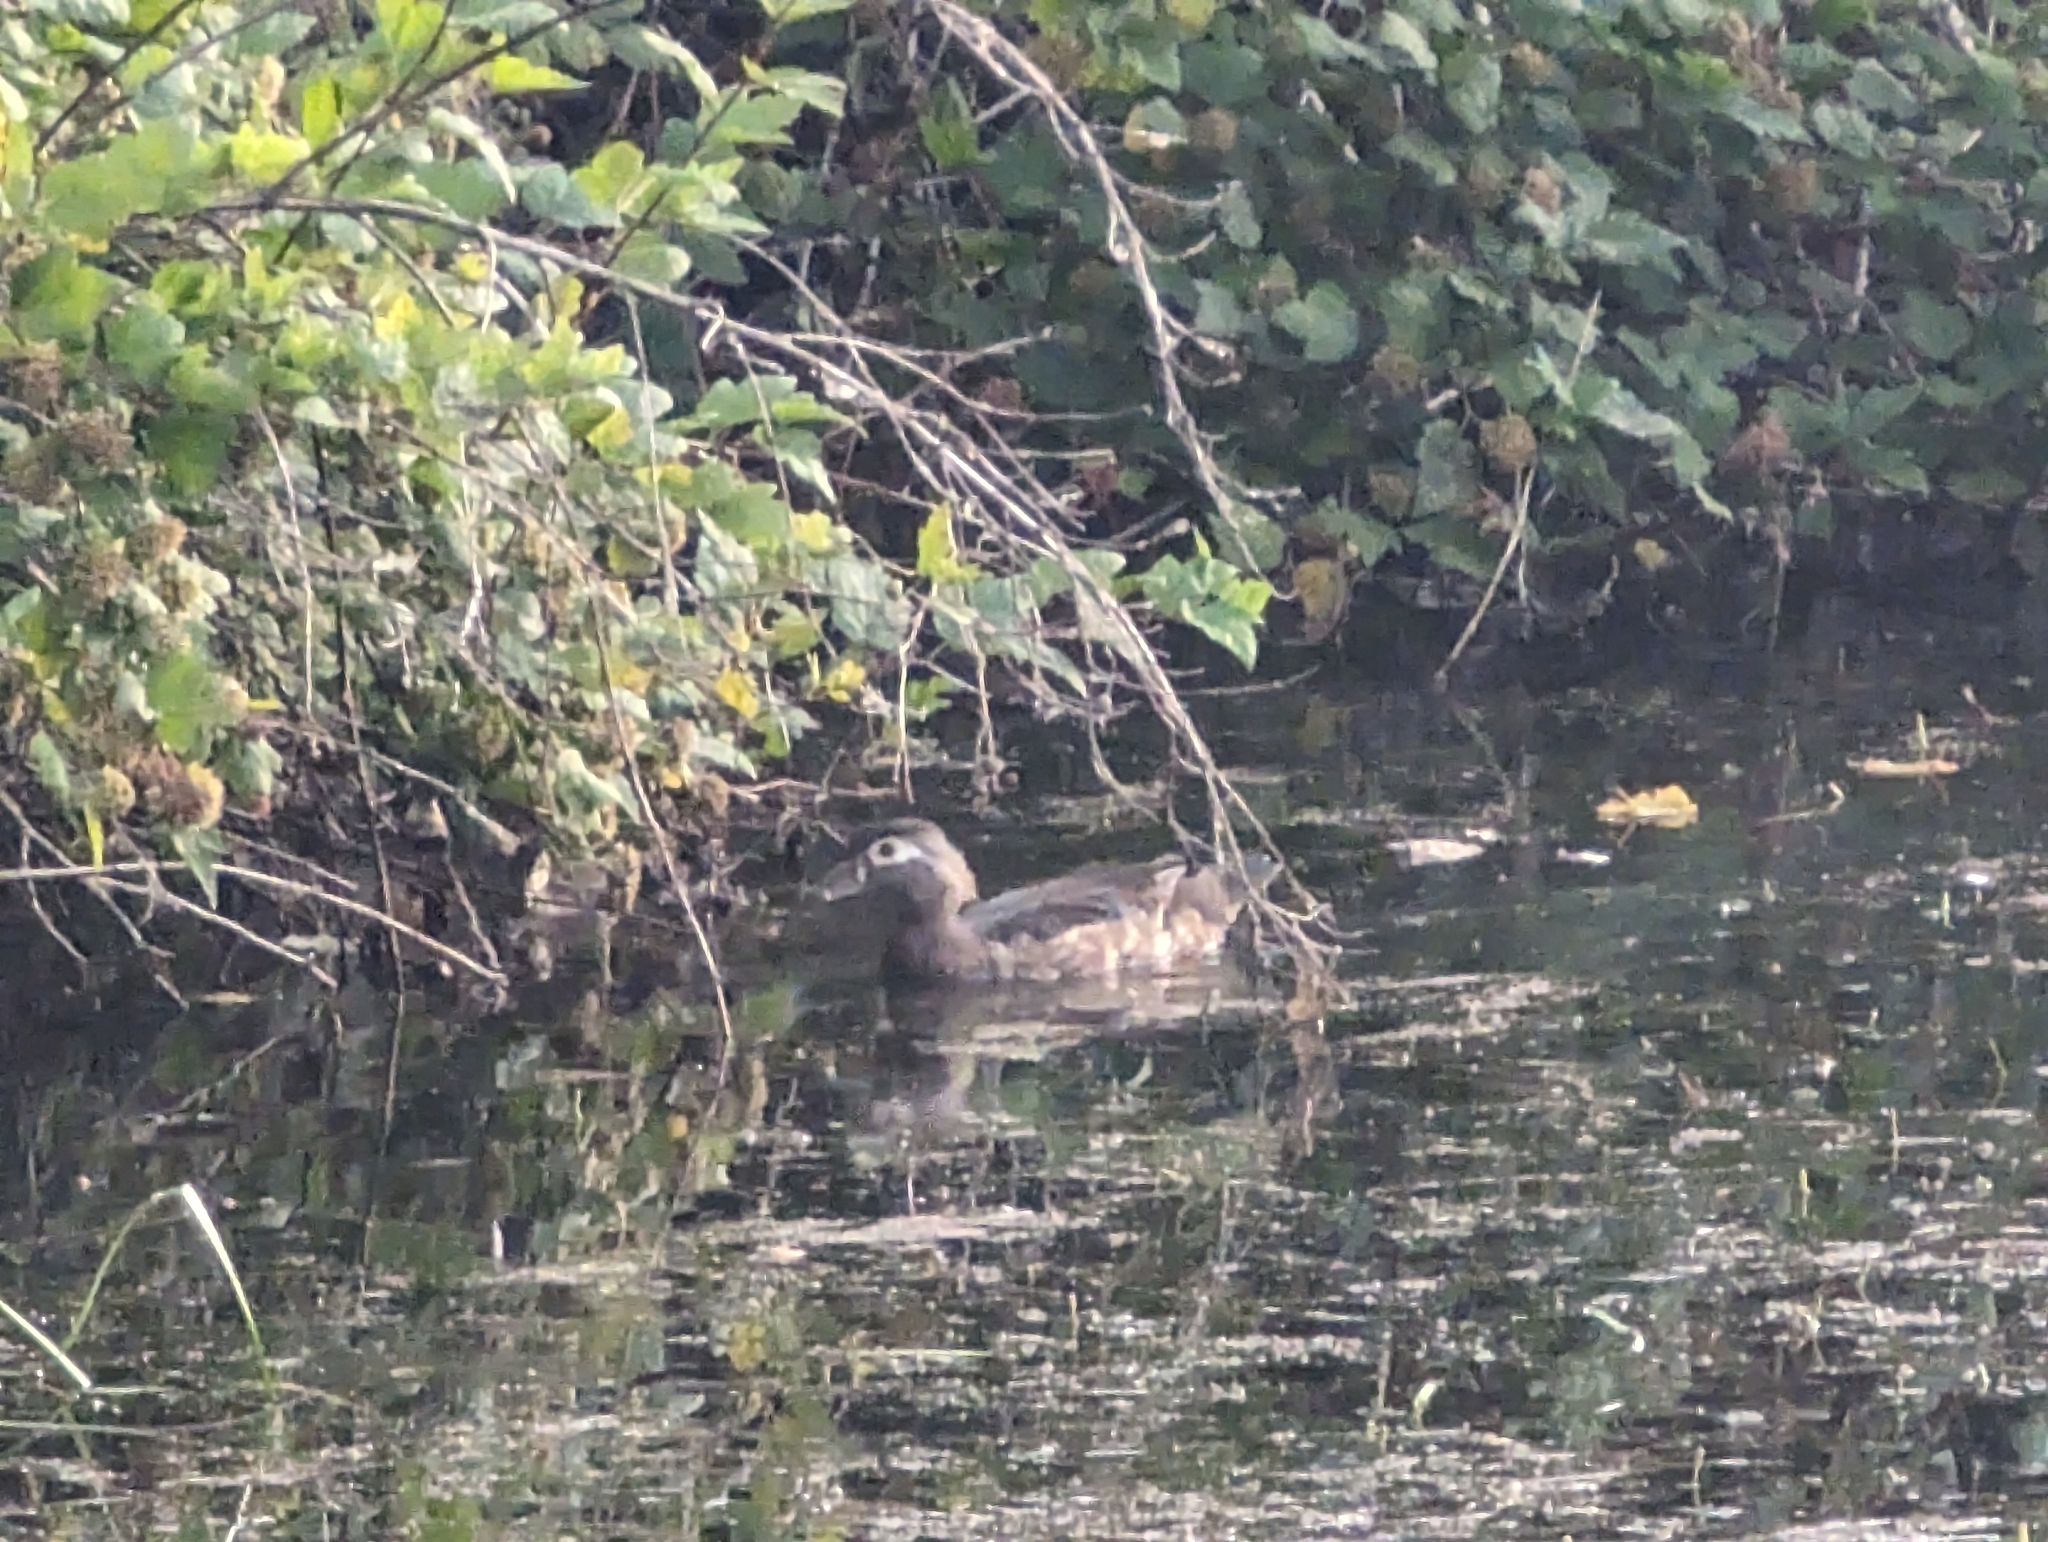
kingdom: Animalia
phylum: Chordata
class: Aves
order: Anseriformes
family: Anatidae
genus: Aix
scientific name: Aix sponsa
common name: Wood duck
